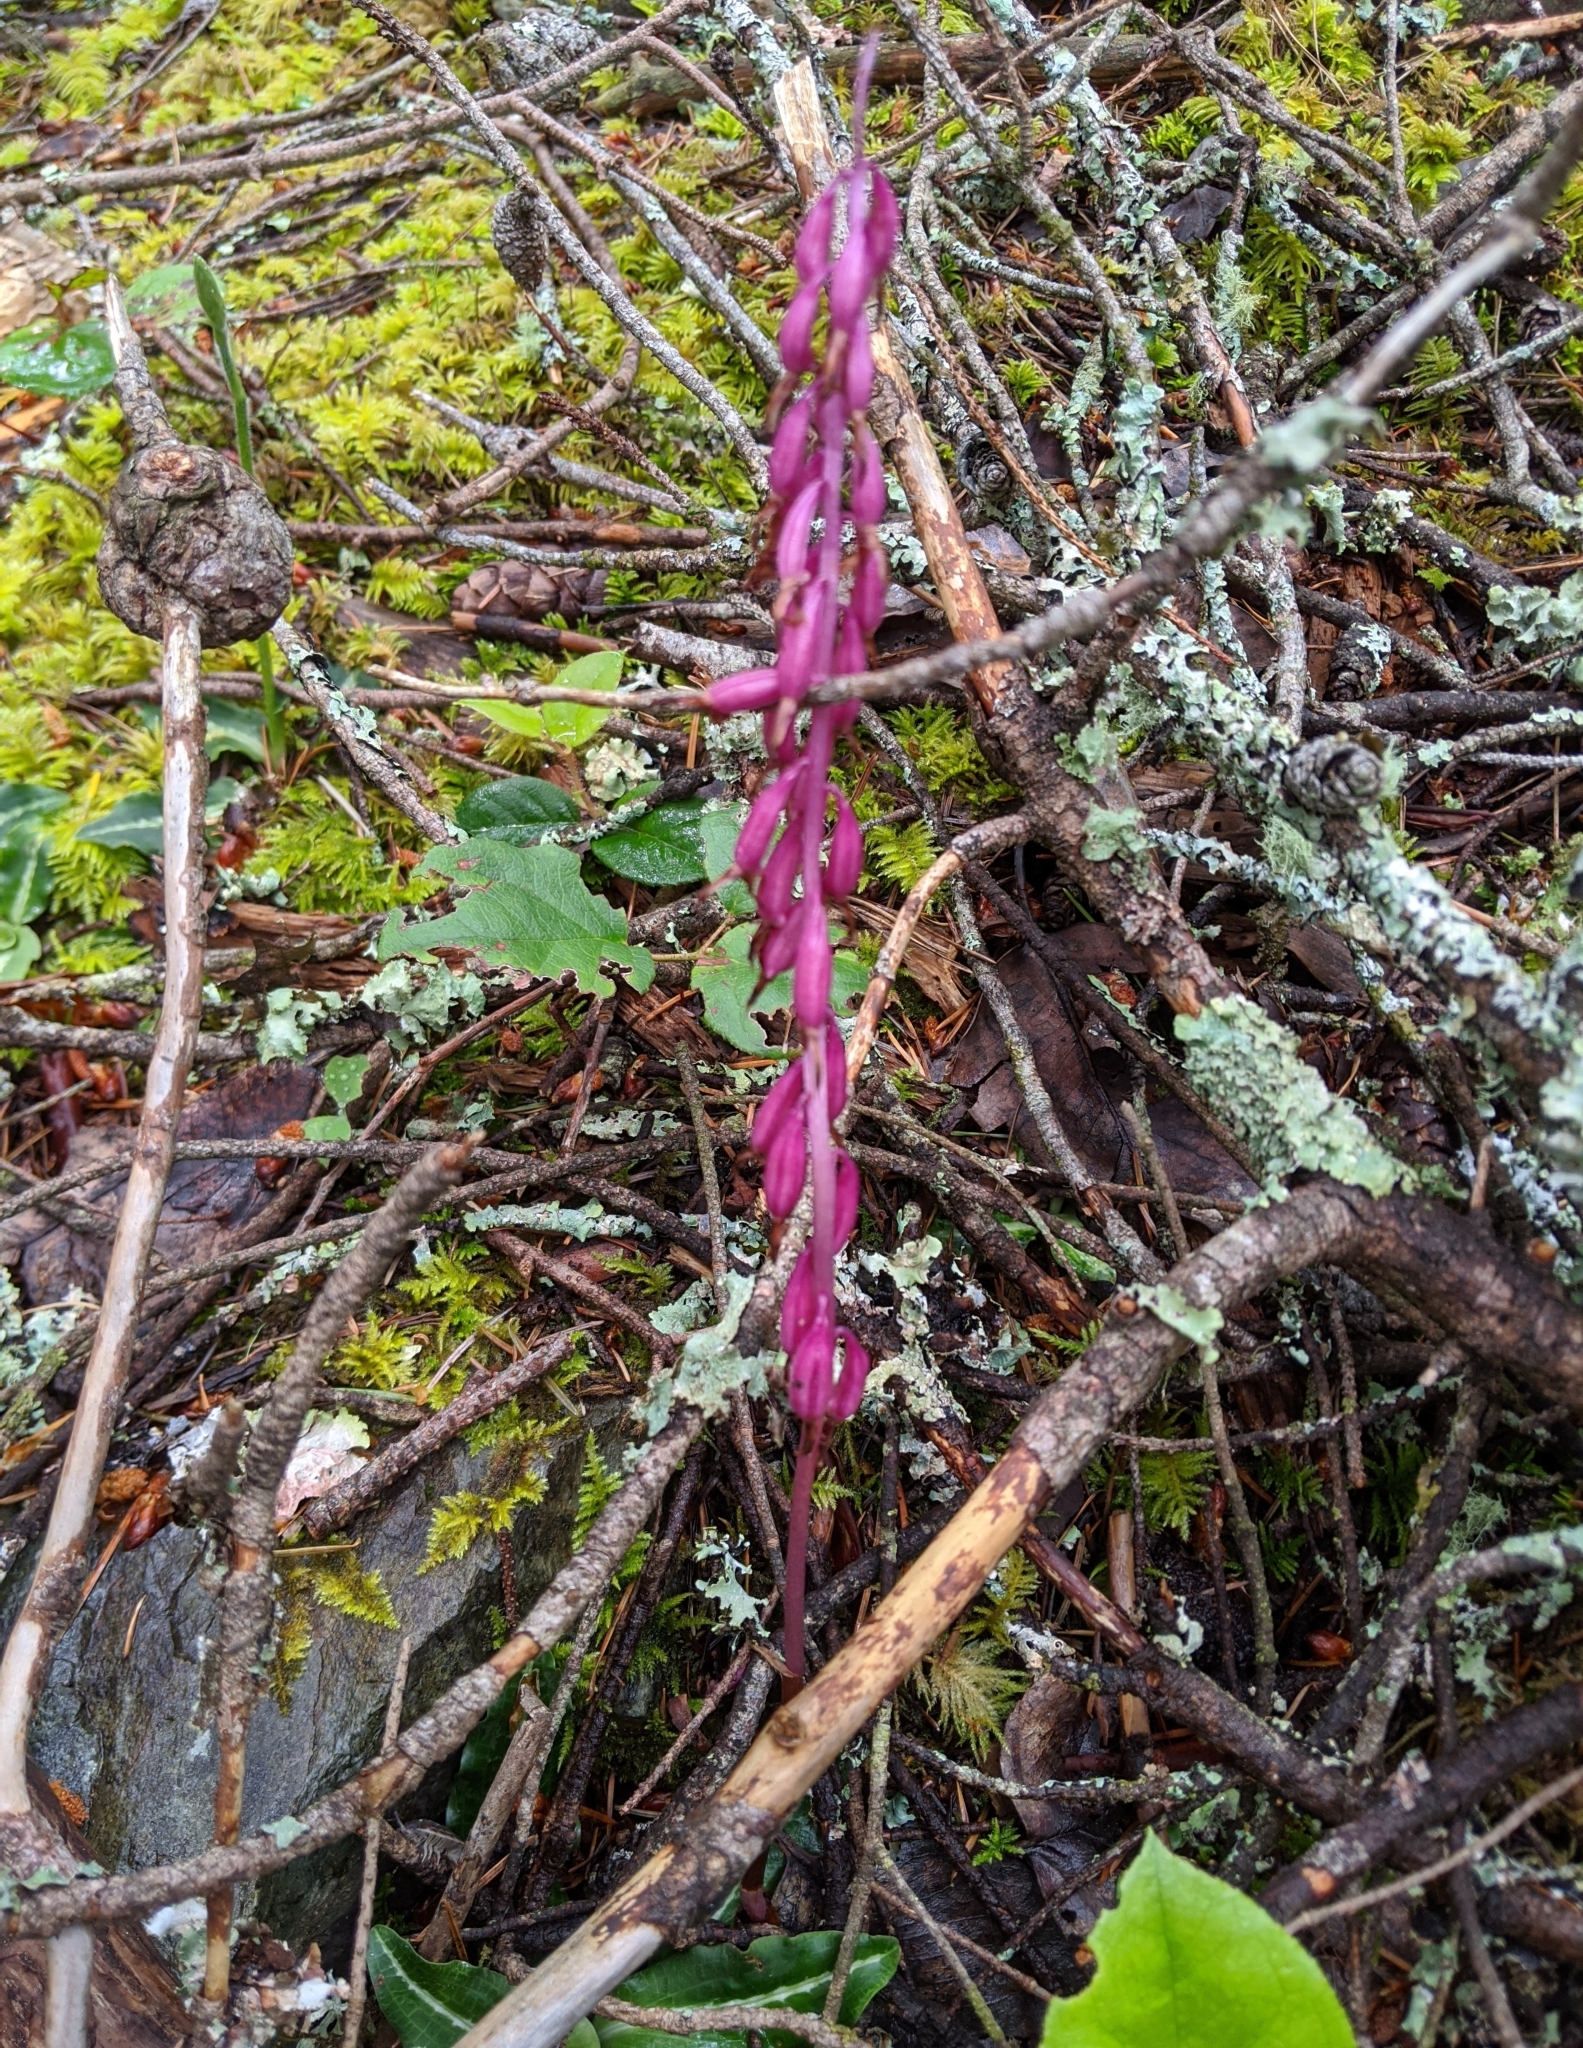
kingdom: Plantae
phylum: Tracheophyta
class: Liliopsida
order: Asparagales
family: Orchidaceae
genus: Corallorhiza
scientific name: Corallorhiza mertensiana
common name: Pacific coralroot
